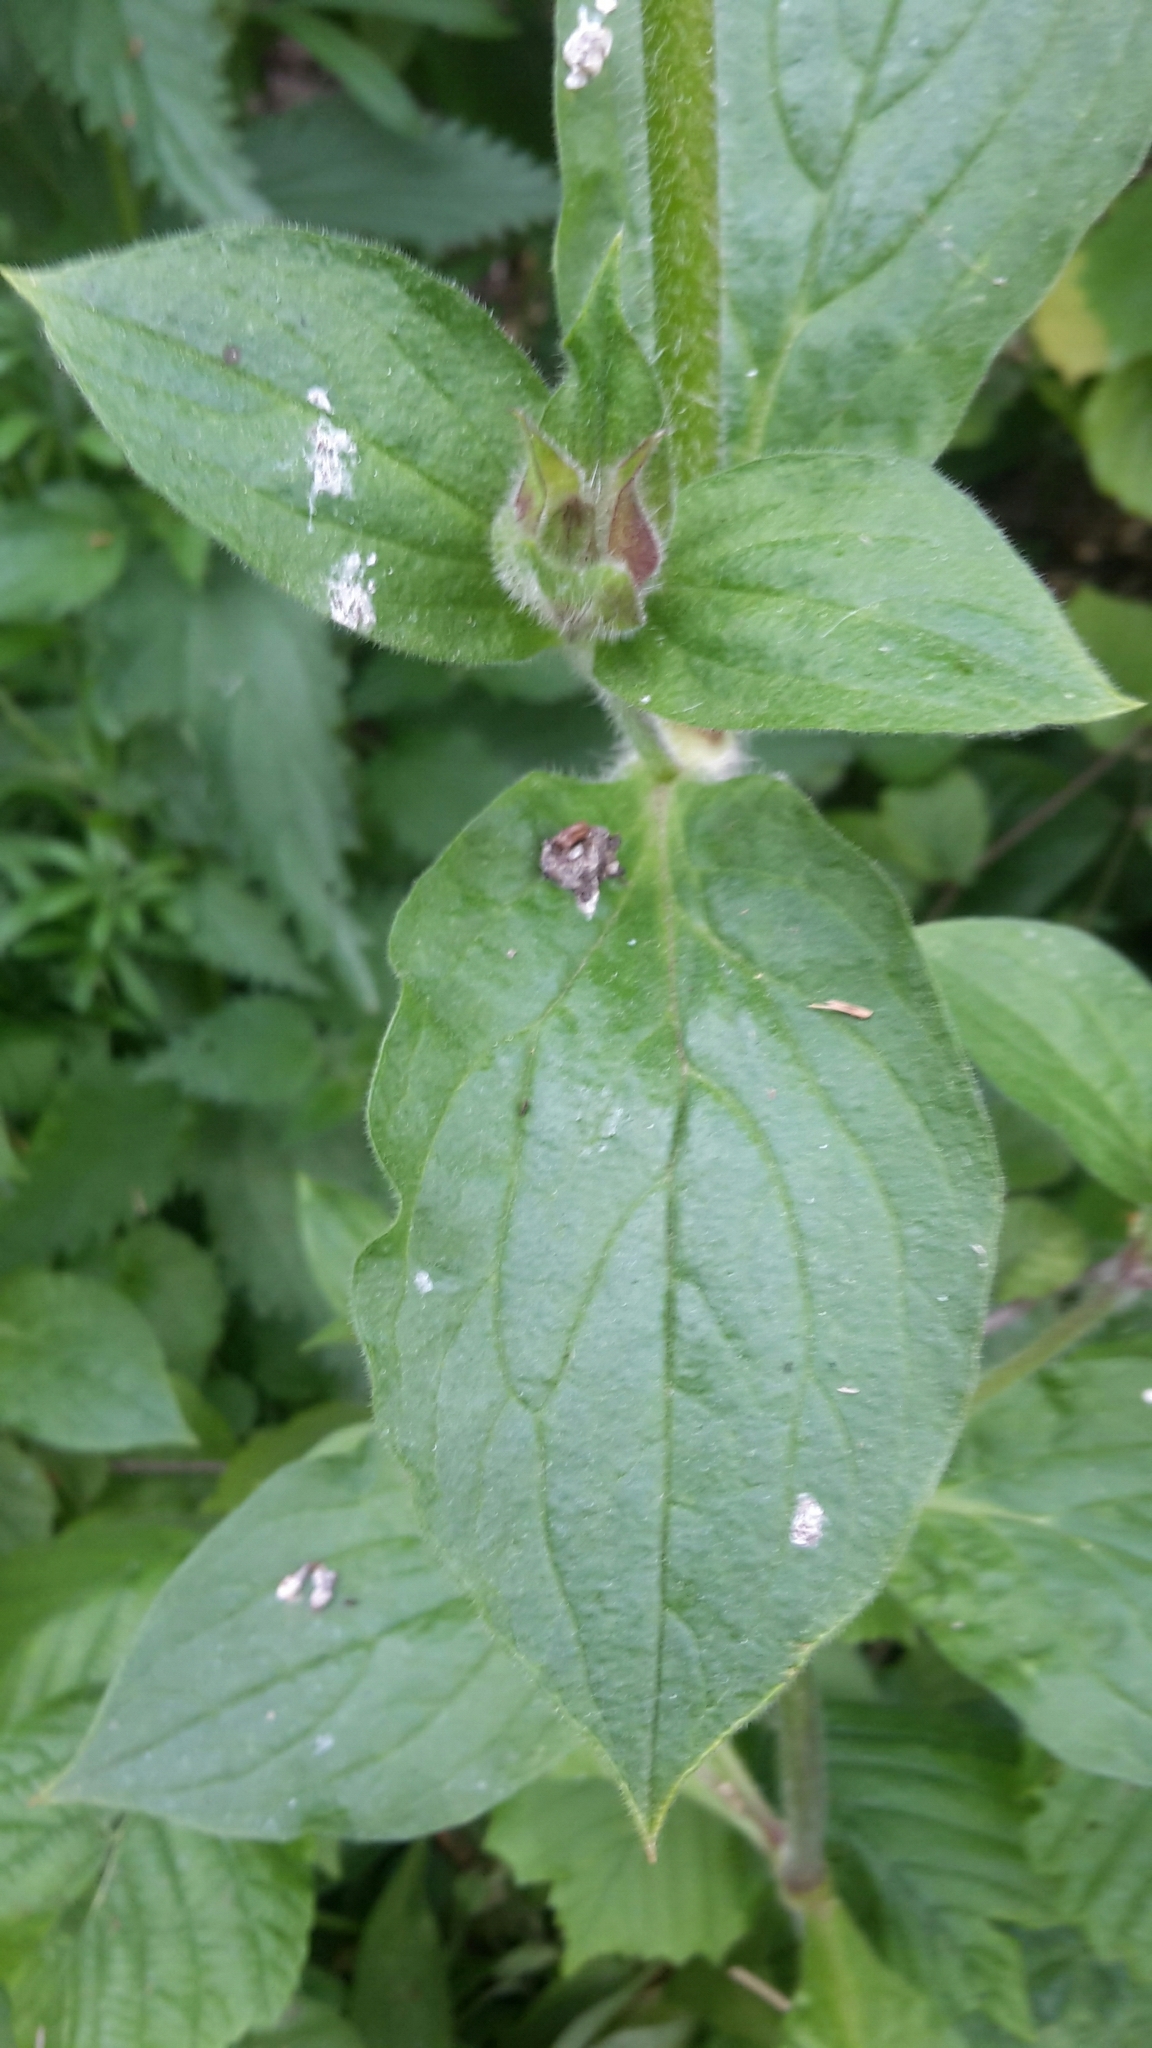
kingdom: Plantae
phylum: Tracheophyta
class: Magnoliopsida
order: Caryophyllales
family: Caryophyllaceae
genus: Silene
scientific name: Silene dioica
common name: Red campion
